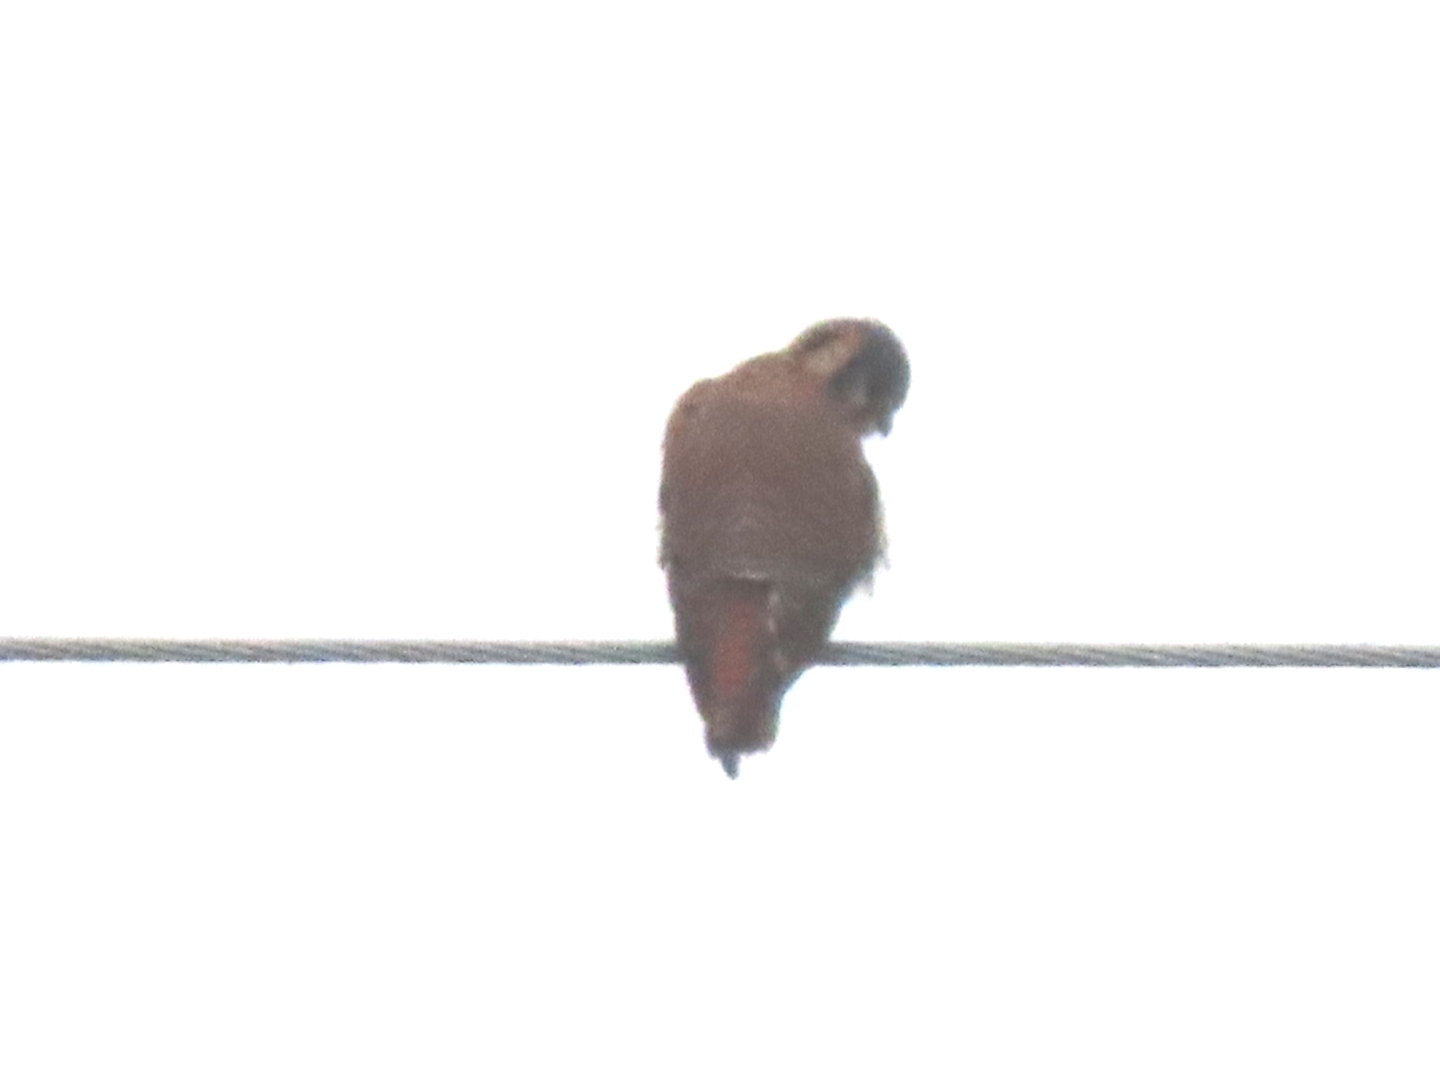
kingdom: Animalia
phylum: Chordata
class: Aves
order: Falconiformes
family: Falconidae
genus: Falco
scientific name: Falco sparverius
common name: American kestrel
